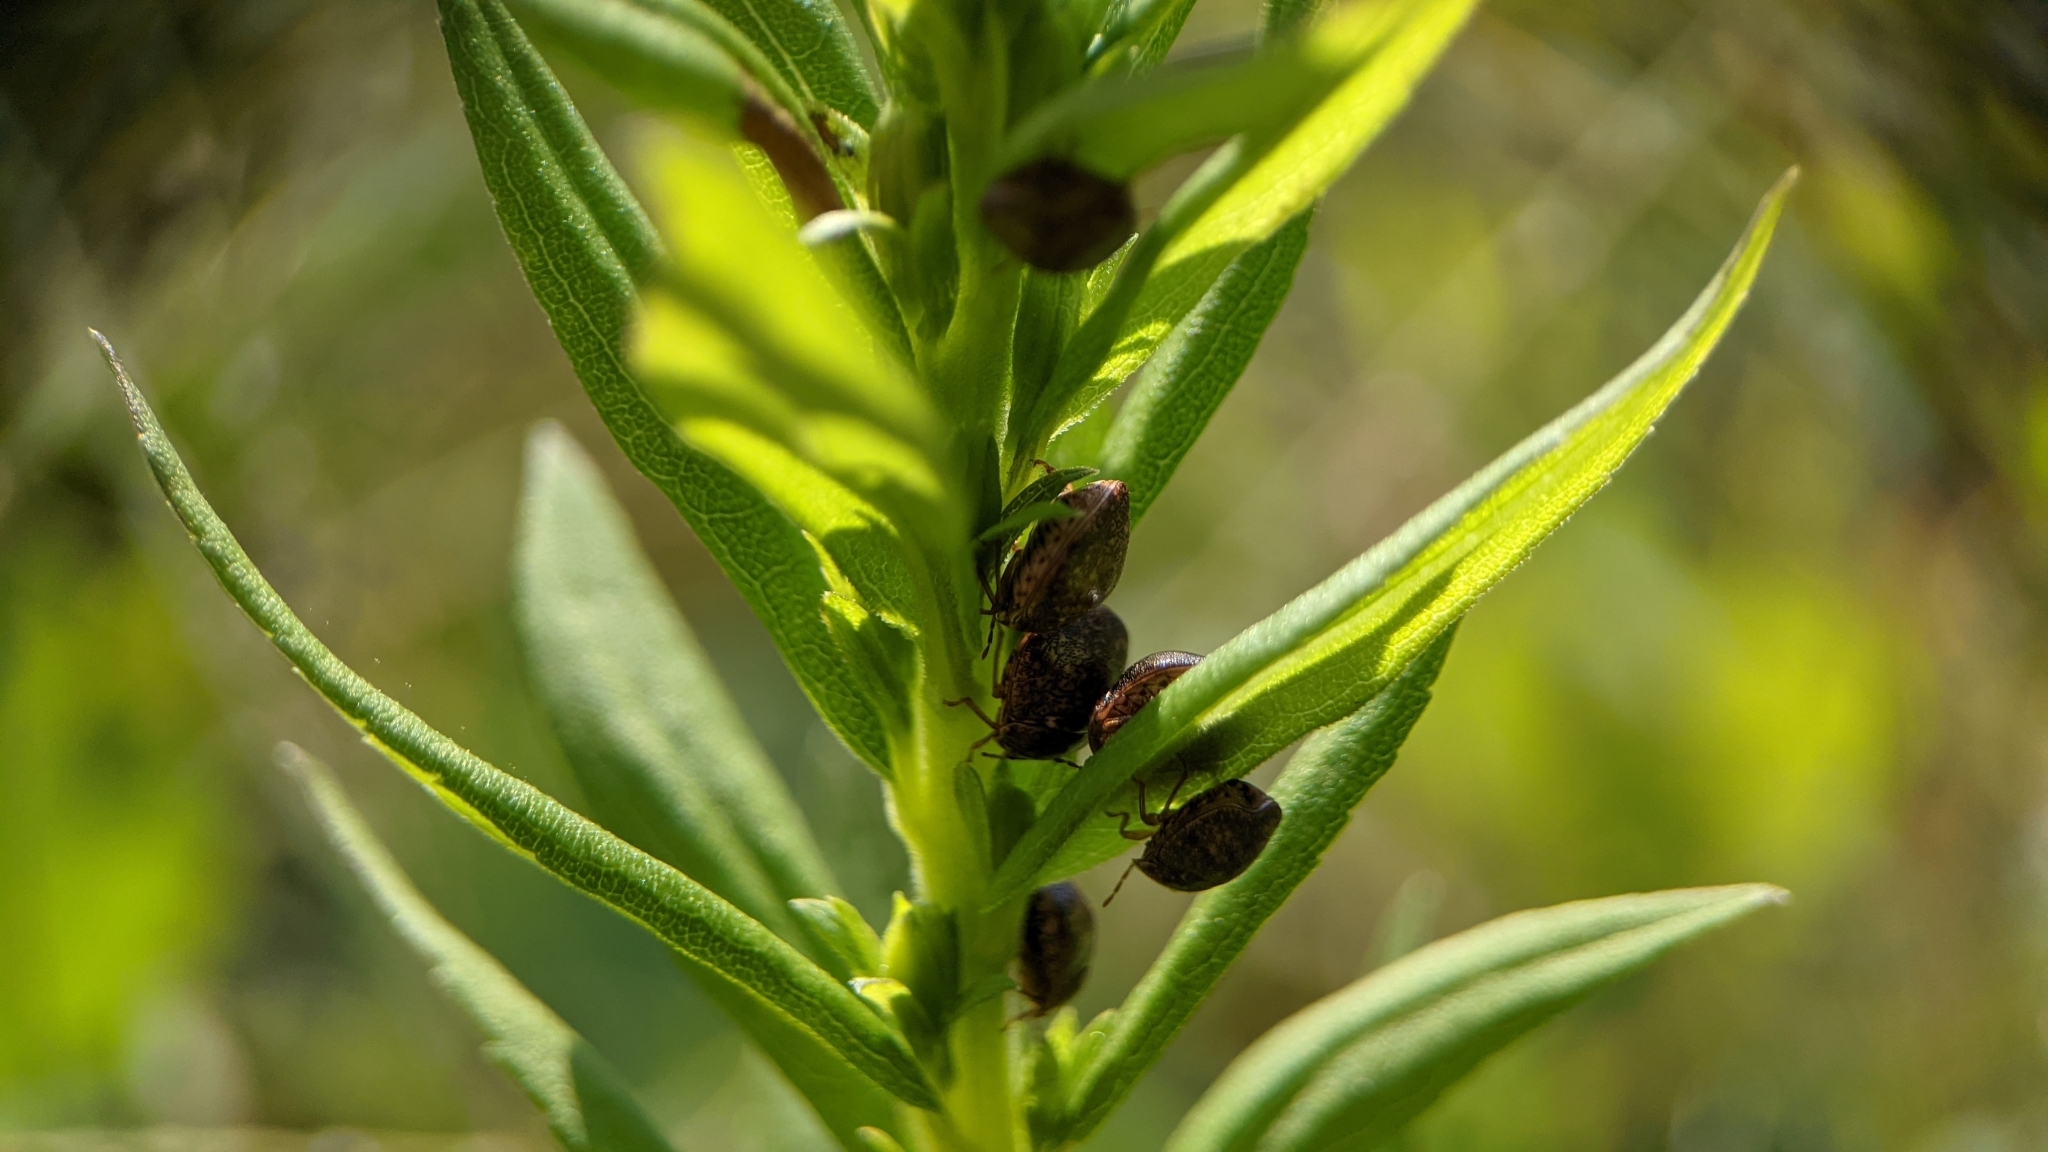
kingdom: Animalia
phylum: Arthropoda
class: Insecta
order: Hemiptera
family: Plataspidae
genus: Megacopta
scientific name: Megacopta cribraria
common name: Bean plataspid
